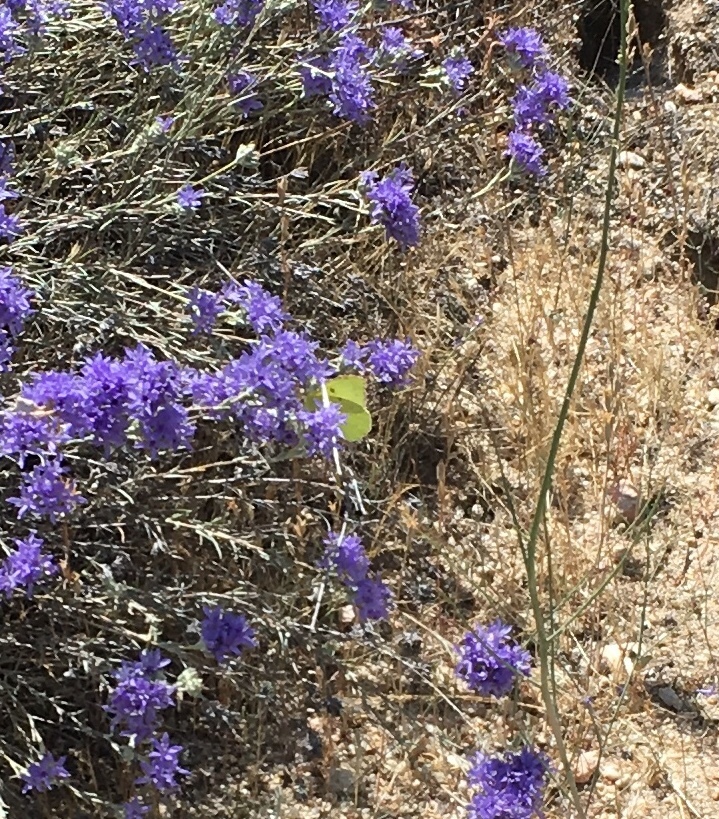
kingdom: Animalia
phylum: Arthropoda
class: Insecta
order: Lepidoptera
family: Pieridae
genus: Zerene
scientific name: Zerene eurydice
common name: California dogface
